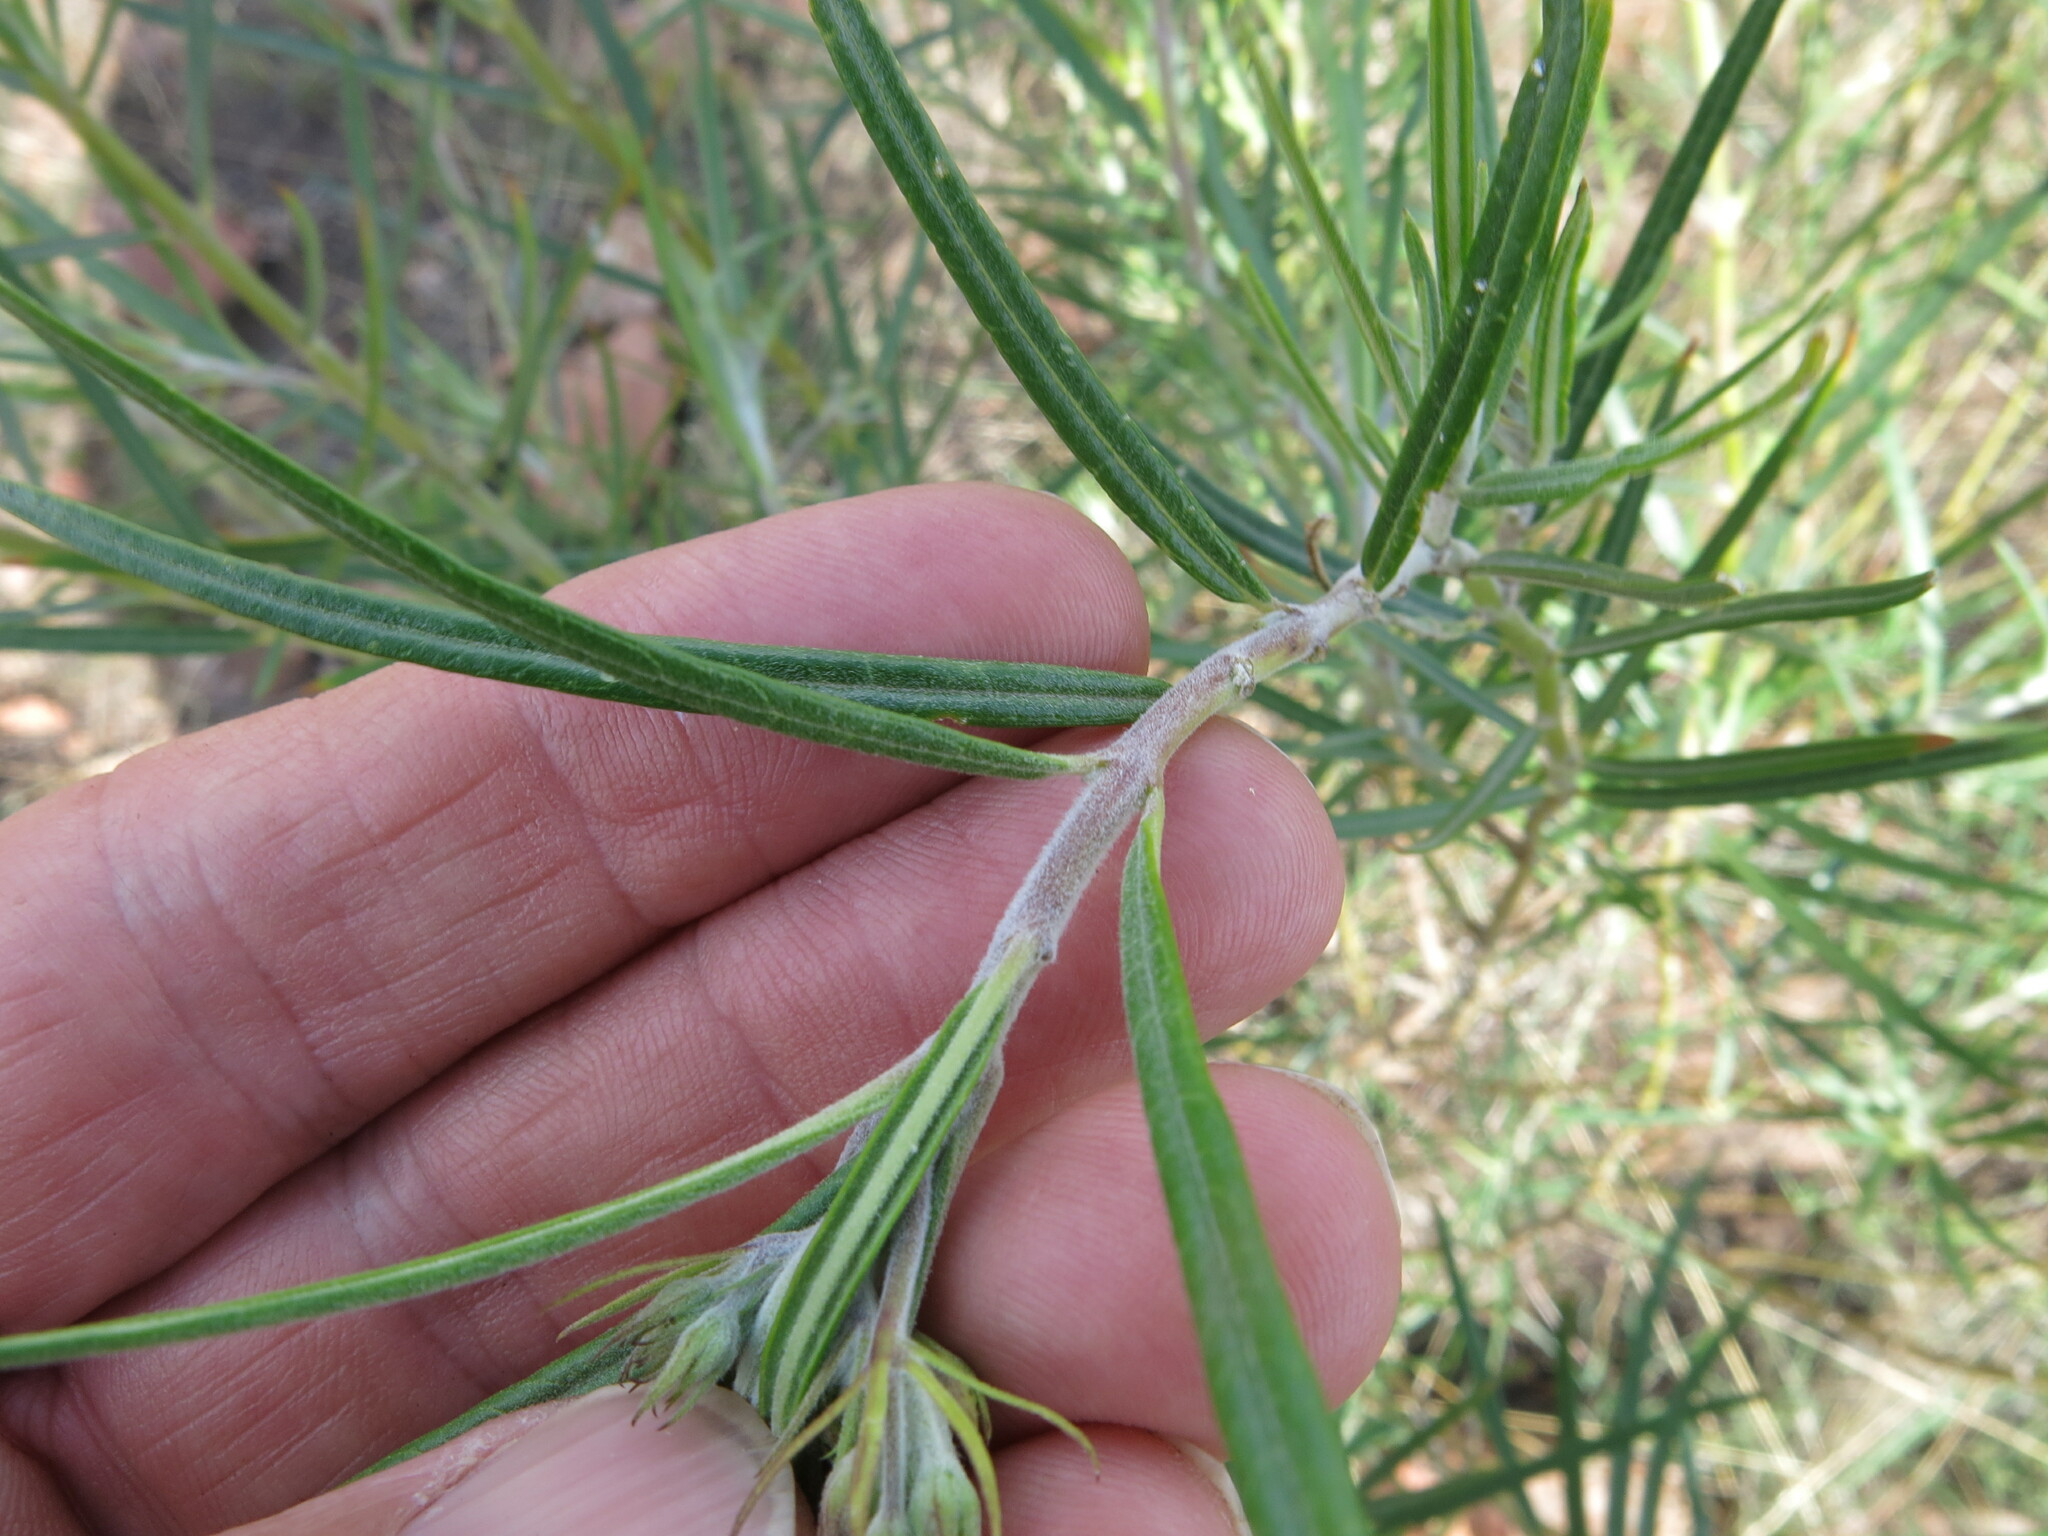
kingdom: Plantae
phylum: Tracheophyta
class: Magnoliopsida
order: Gentianales
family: Apocynaceae
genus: Gomphocarpus
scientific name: Gomphocarpus fruticosus
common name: Milkweed
